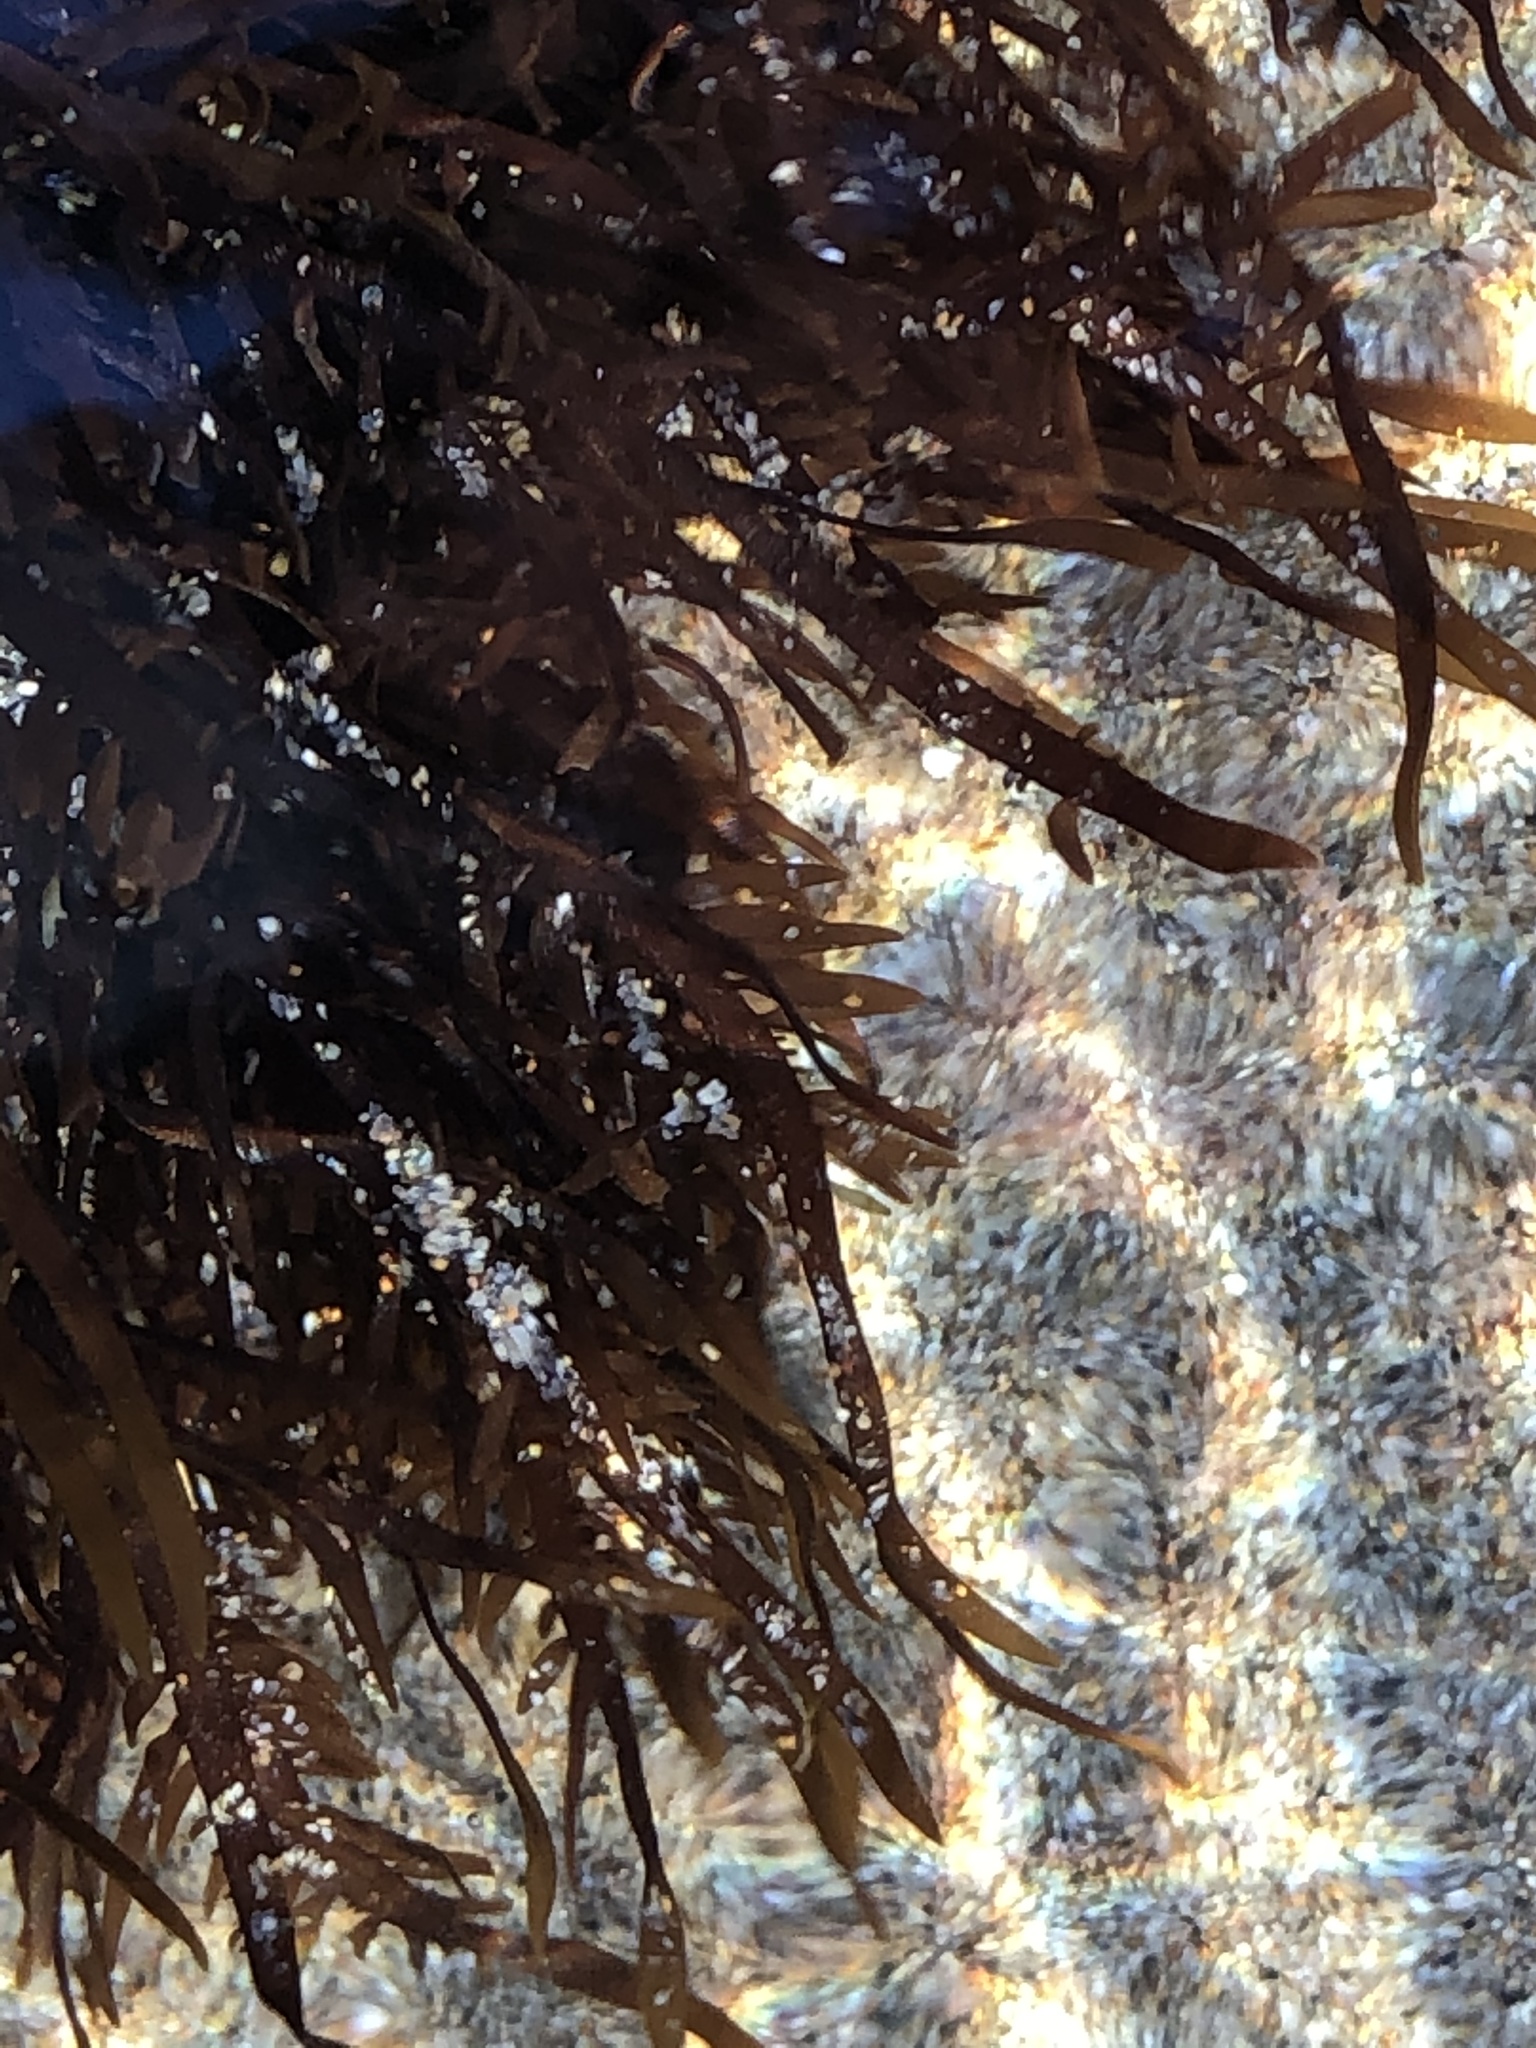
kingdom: Plantae
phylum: Rhodophyta
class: Florideophyceae
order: Halymeniales
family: Halymeniaceae
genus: Grateloupia
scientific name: Grateloupia Prionitis lanceolata
